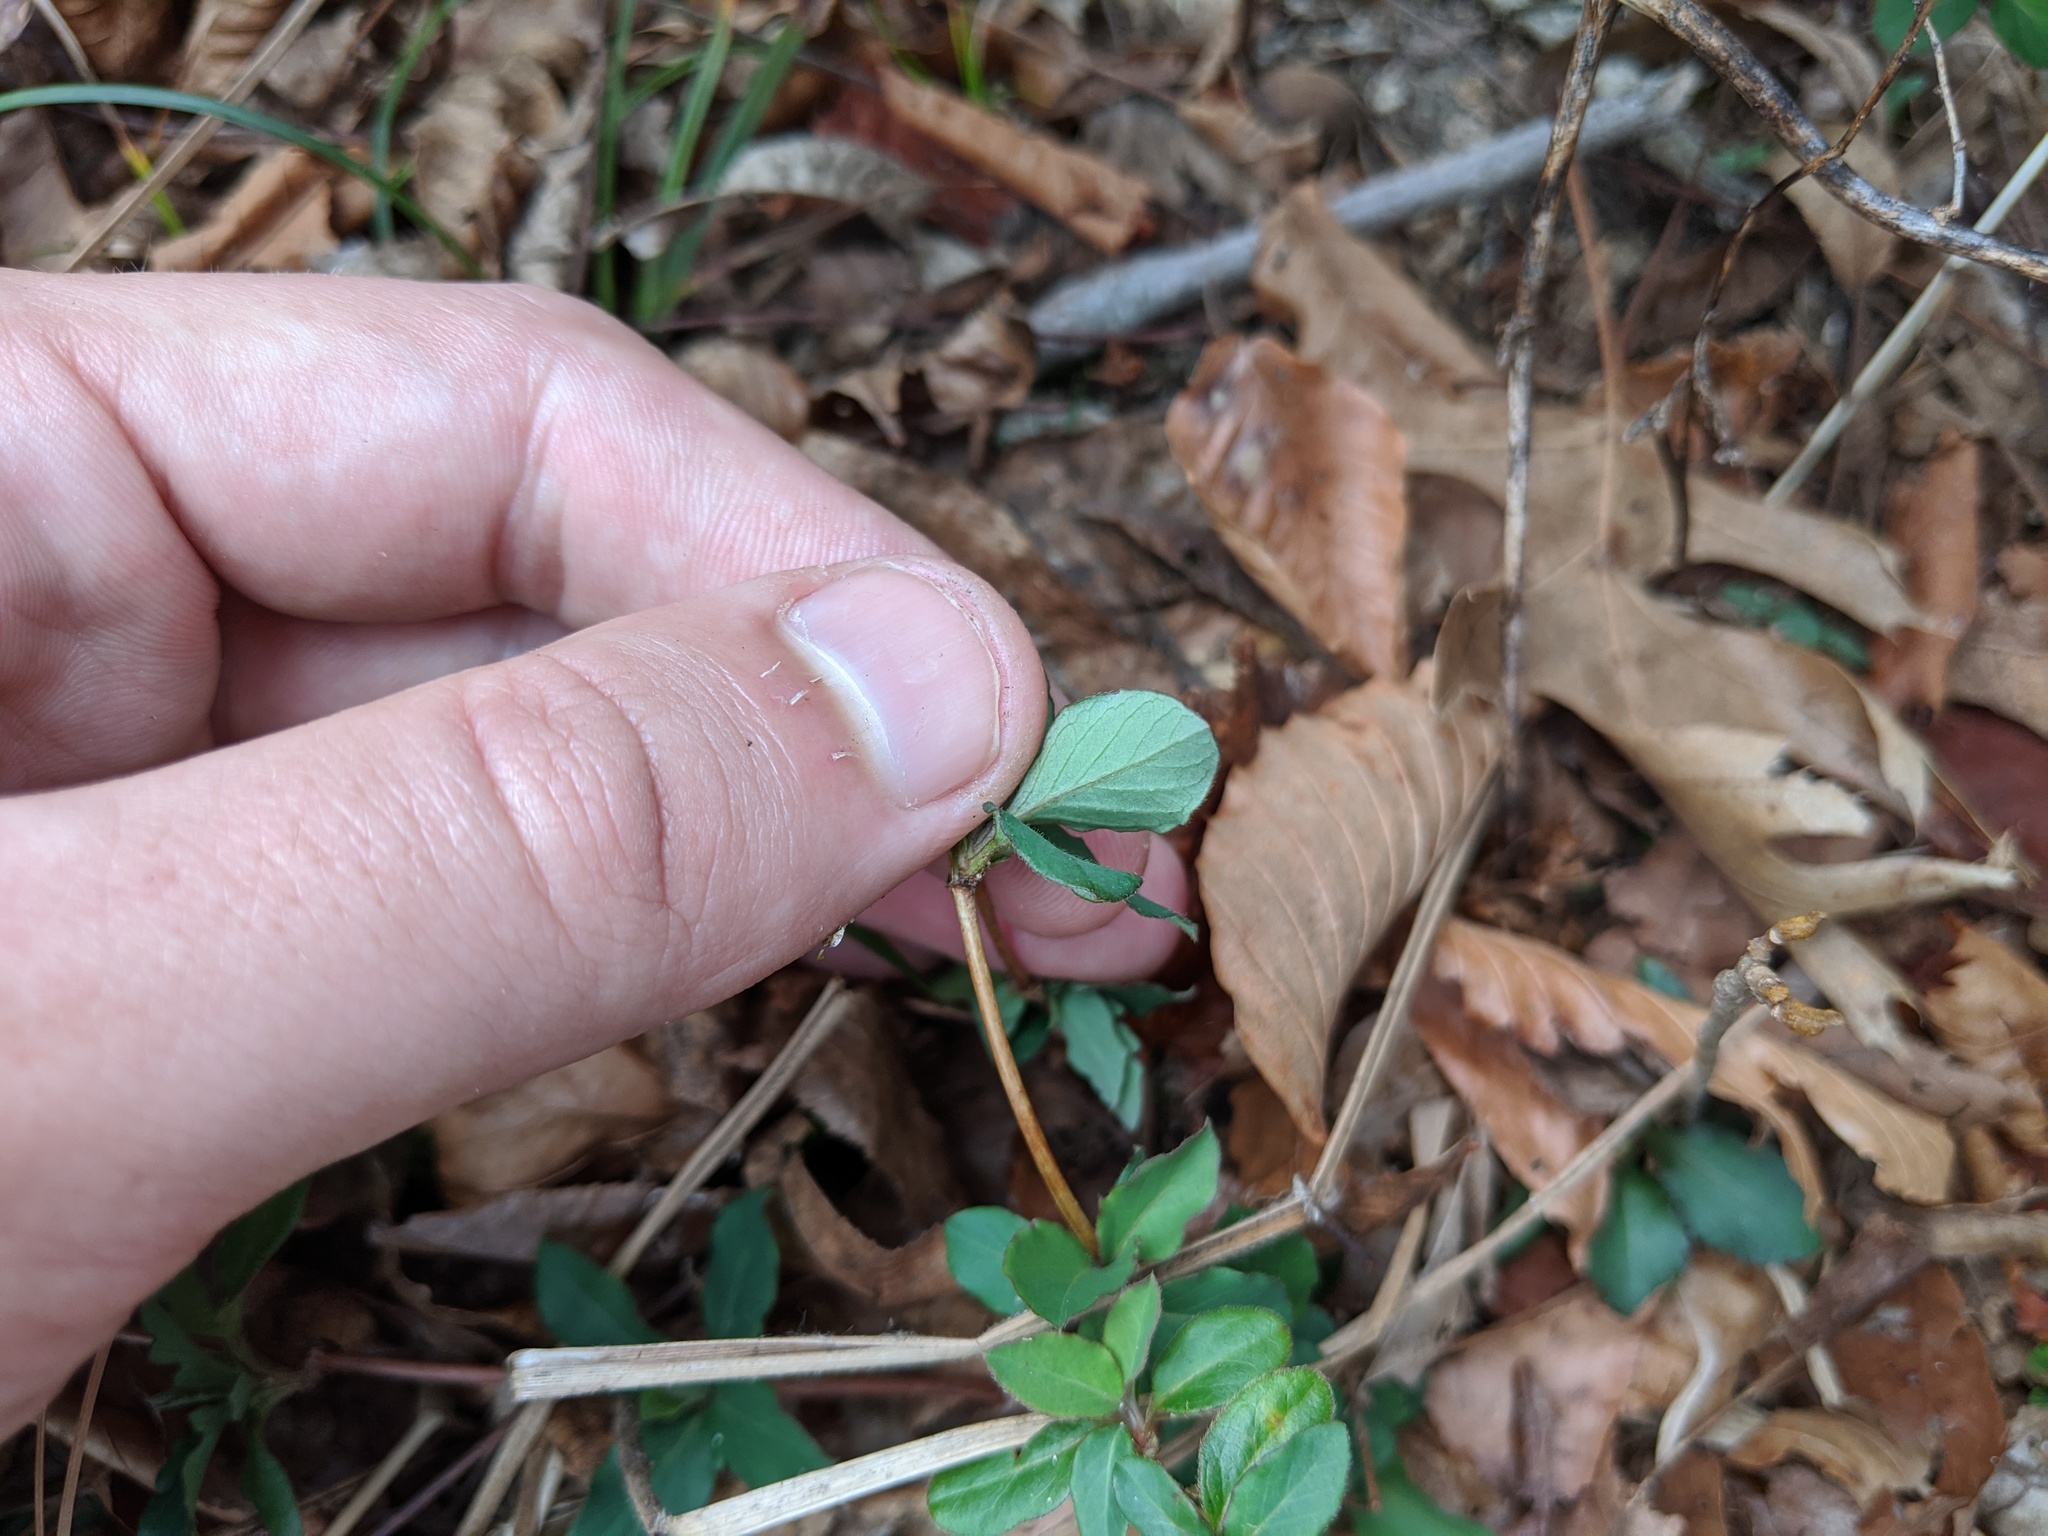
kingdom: Plantae
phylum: Tracheophyta
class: Magnoliopsida
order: Dipsacales
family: Caprifoliaceae
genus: Lonicera
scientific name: Lonicera japonica
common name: Japanese honeysuckle
